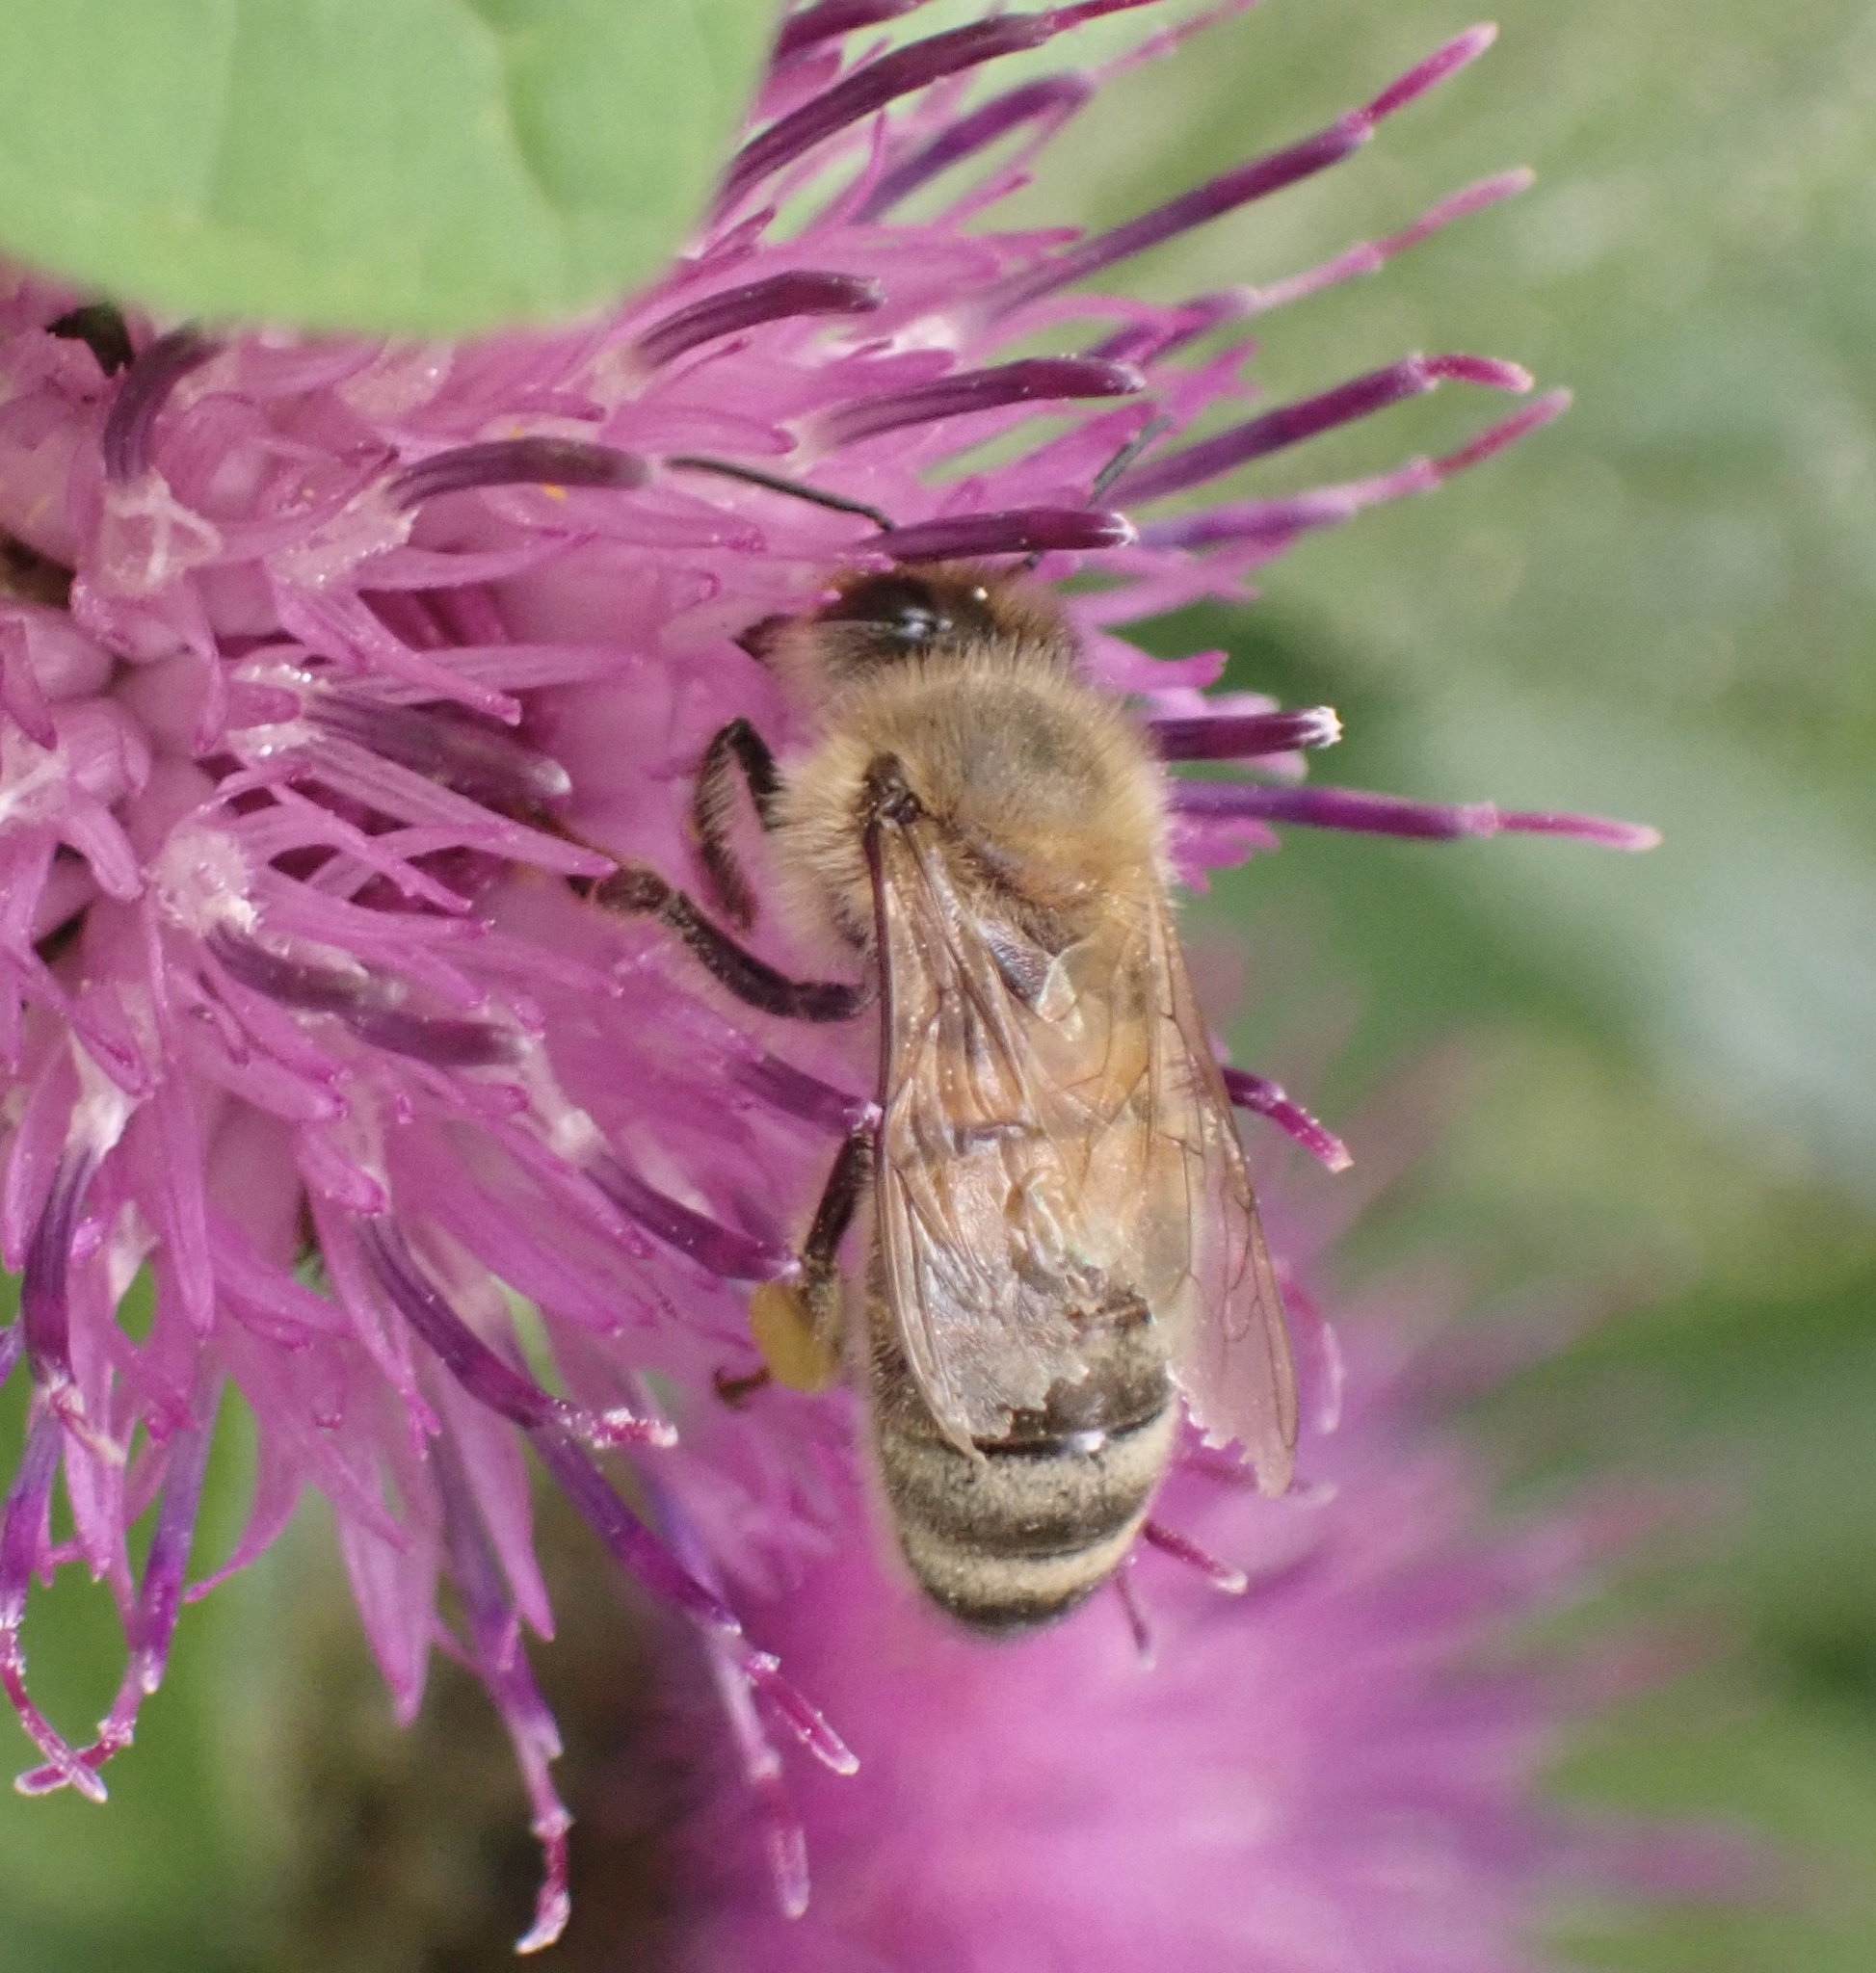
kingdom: Animalia
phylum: Arthropoda
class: Insecta
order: Hymenoptera
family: Apidae
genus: Apis
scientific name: Apis mellifera
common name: Honey bee
